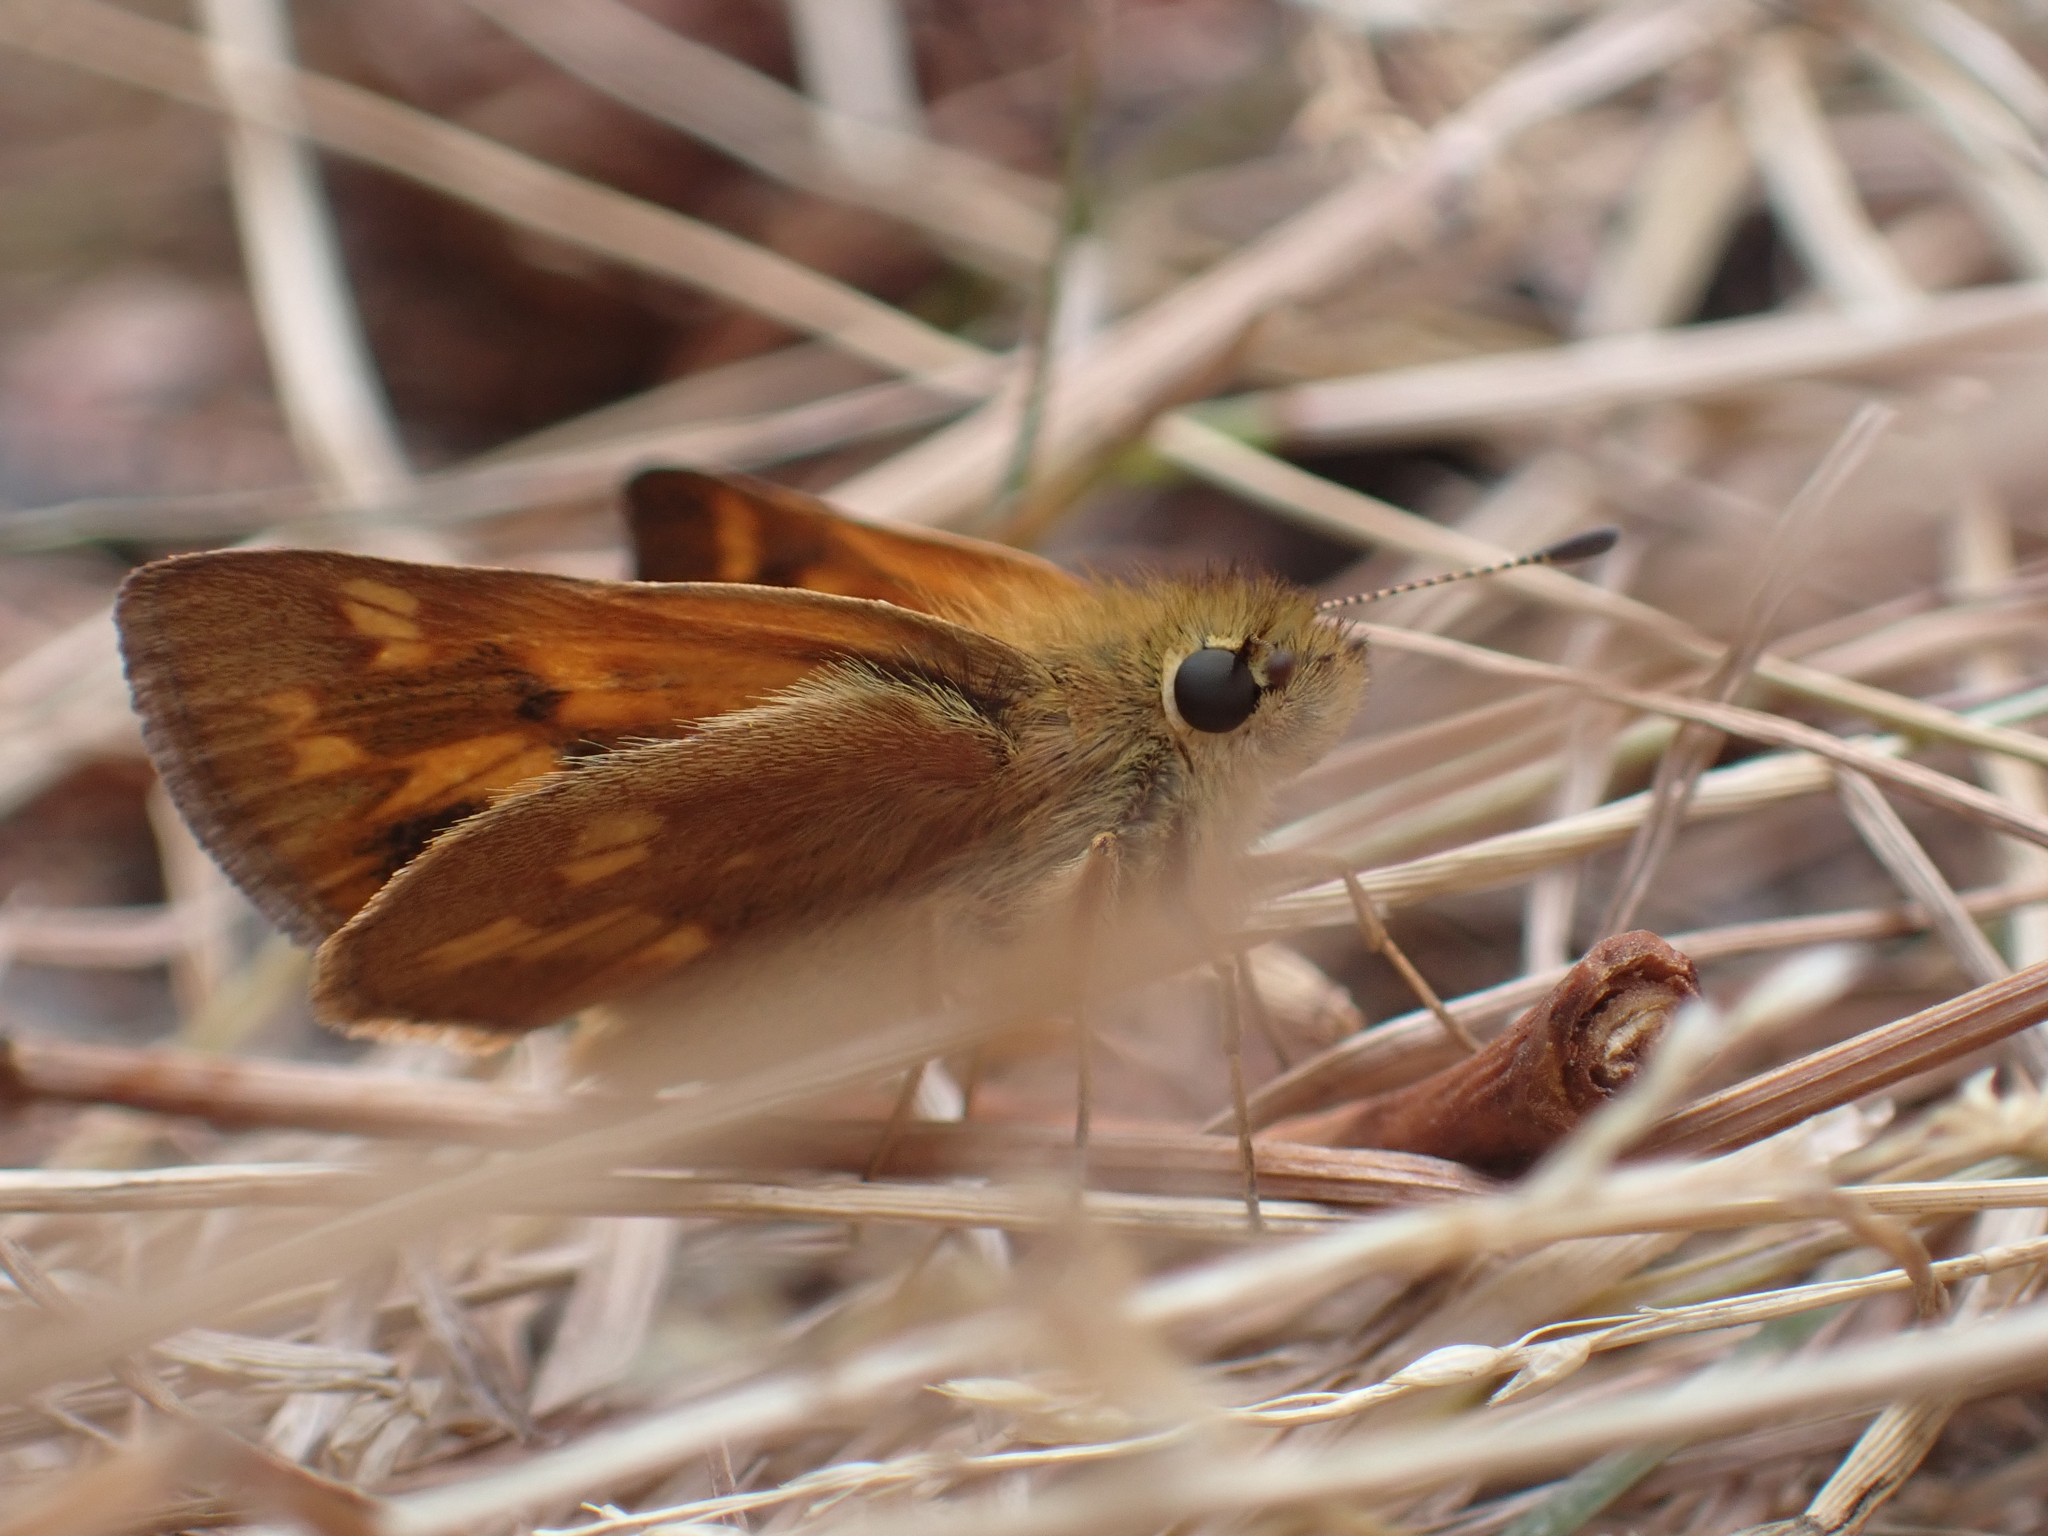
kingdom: Animalia
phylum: Arthropoda
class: Insecta
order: Lepidoptera
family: Hesperiidae
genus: Ochlodes
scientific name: Ochlodes sylvanoides
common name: Woodland skipper
